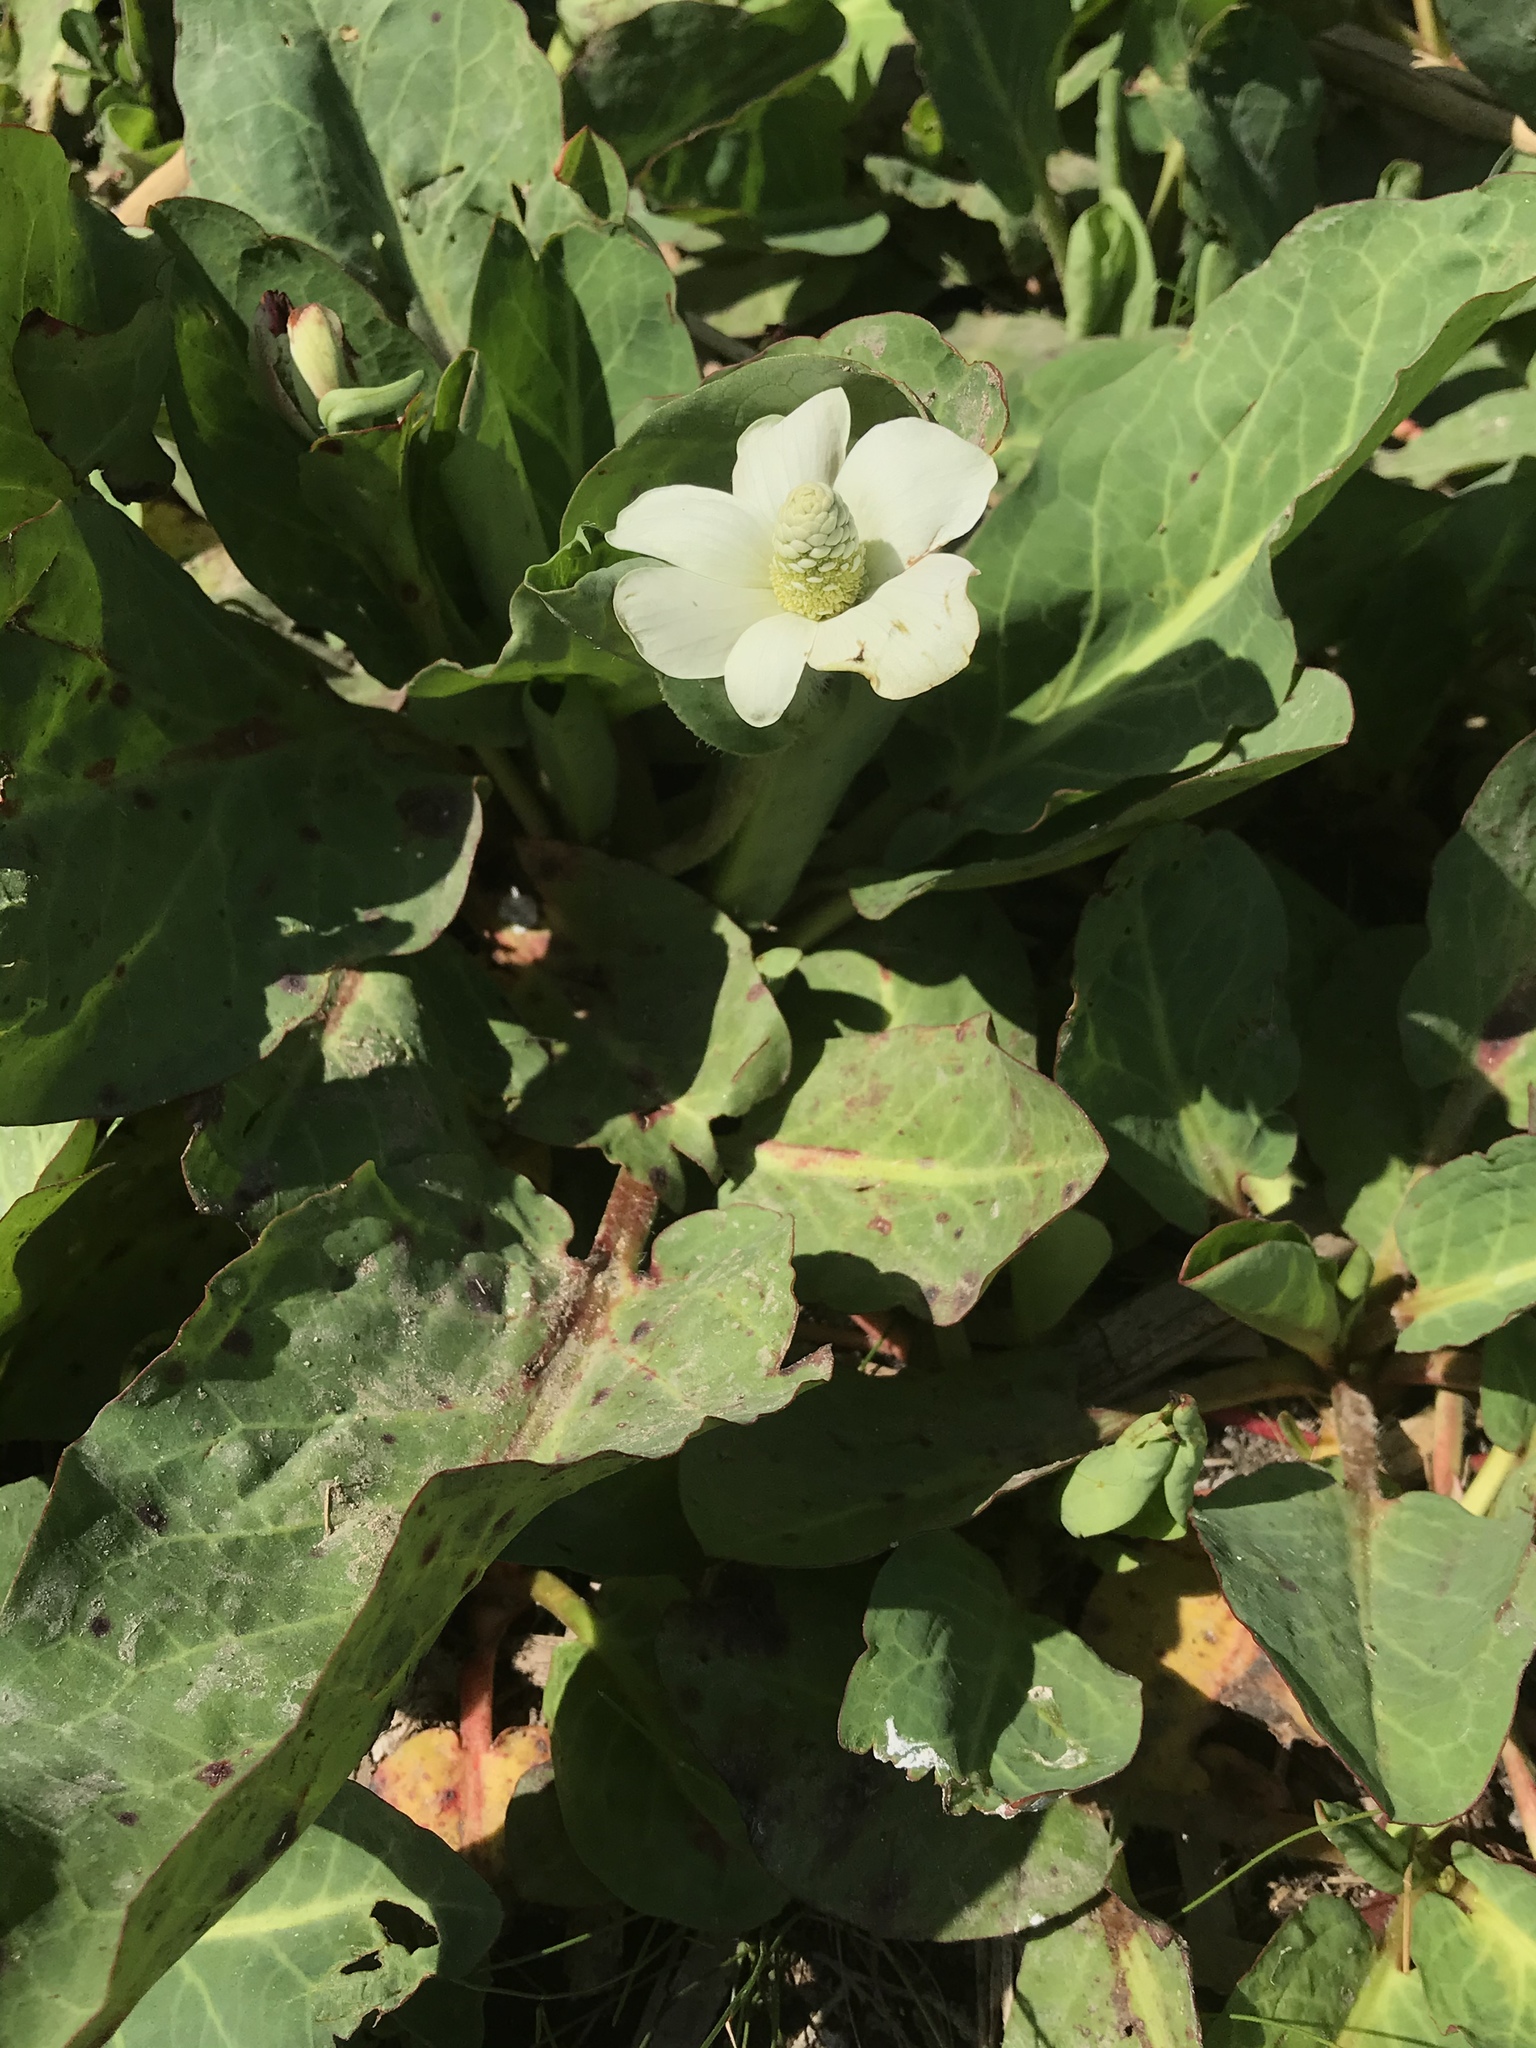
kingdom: Plantae
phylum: Tracheophyta
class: Magnoliopsida
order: Piperales
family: Saururaceae
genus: Anemopsis
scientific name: Anemopsis californica
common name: Apache-beads
